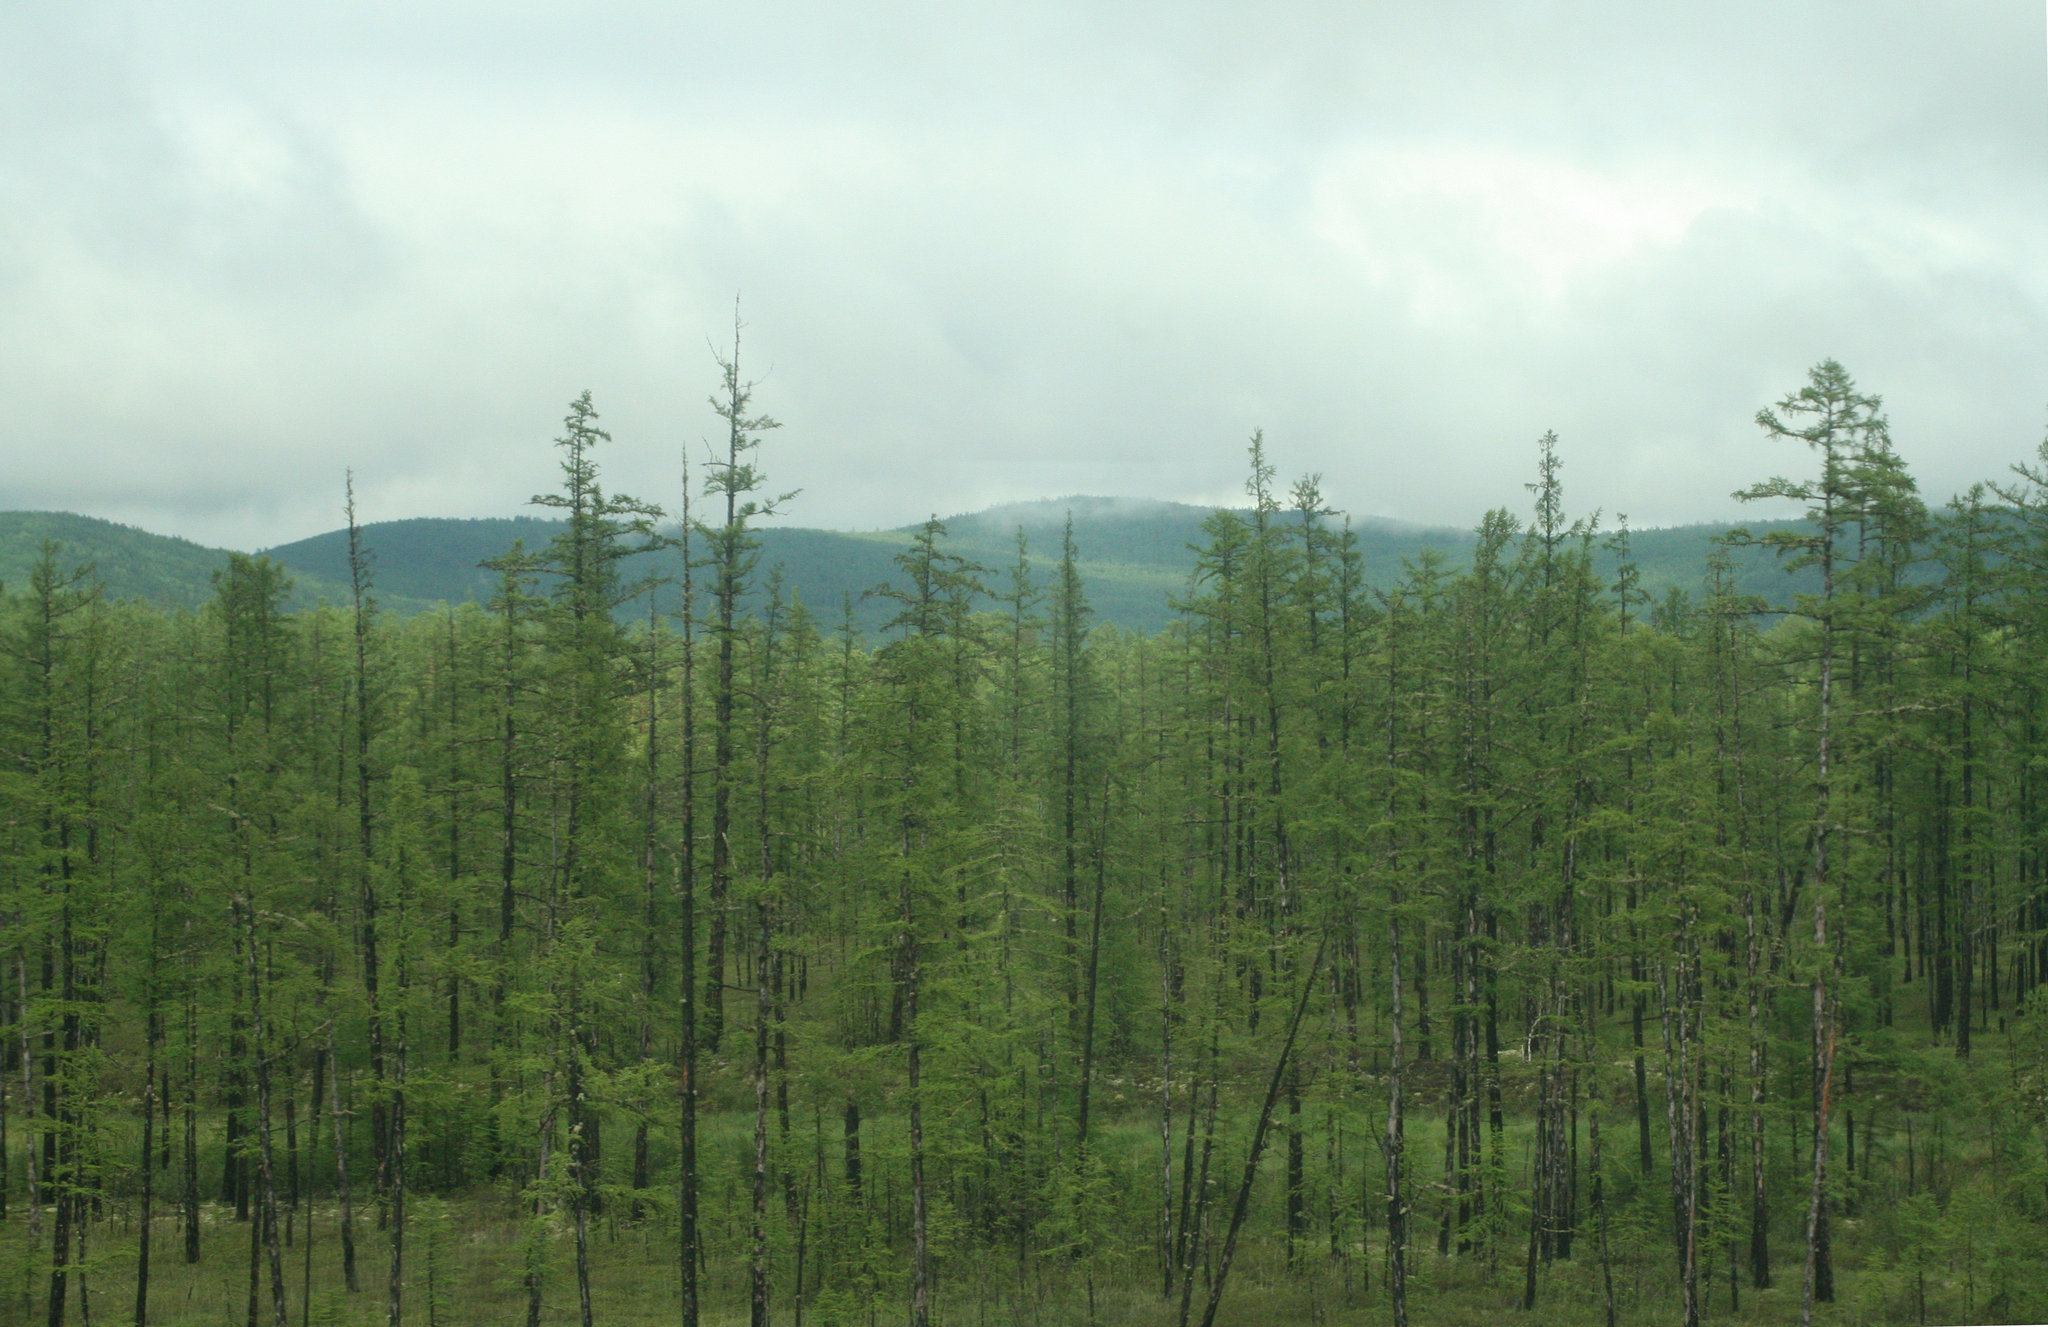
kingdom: Plantae
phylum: Tracheophyta
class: Pinopsida
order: Pinales
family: Pinaceae
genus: Larix
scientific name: Larix gmelinii
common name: Dahurian larch
